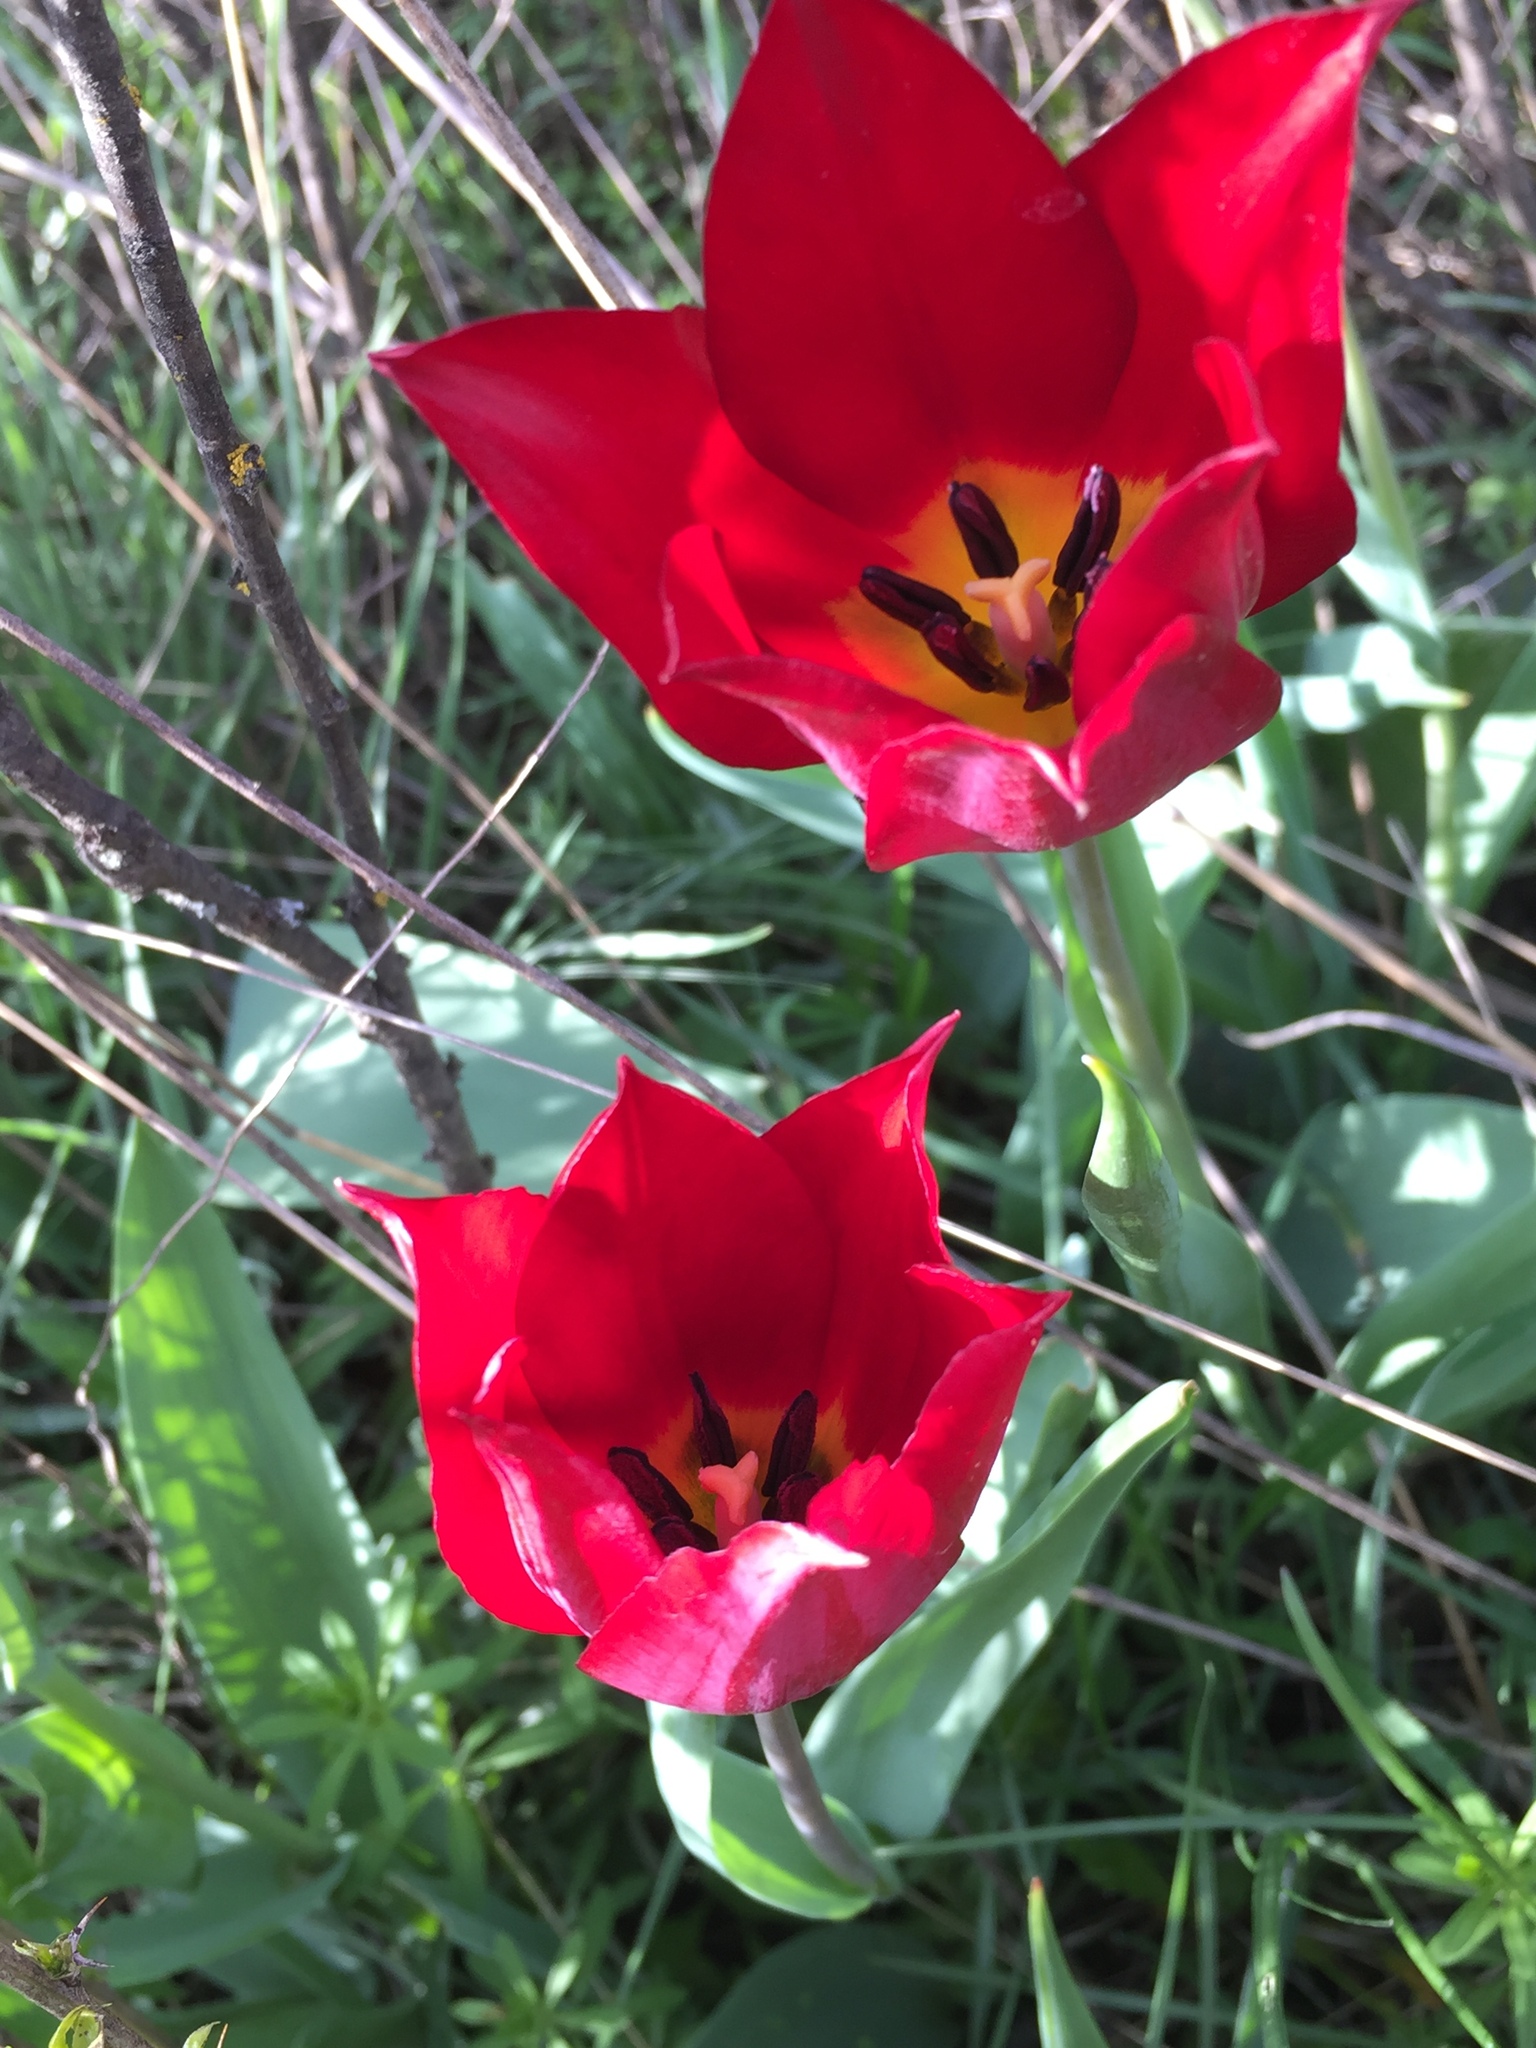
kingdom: Plantae
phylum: Tracheophyta
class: Liliopsida
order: Liliales
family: Liliaceae
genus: Tulipa
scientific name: Tulipa suaveolens
